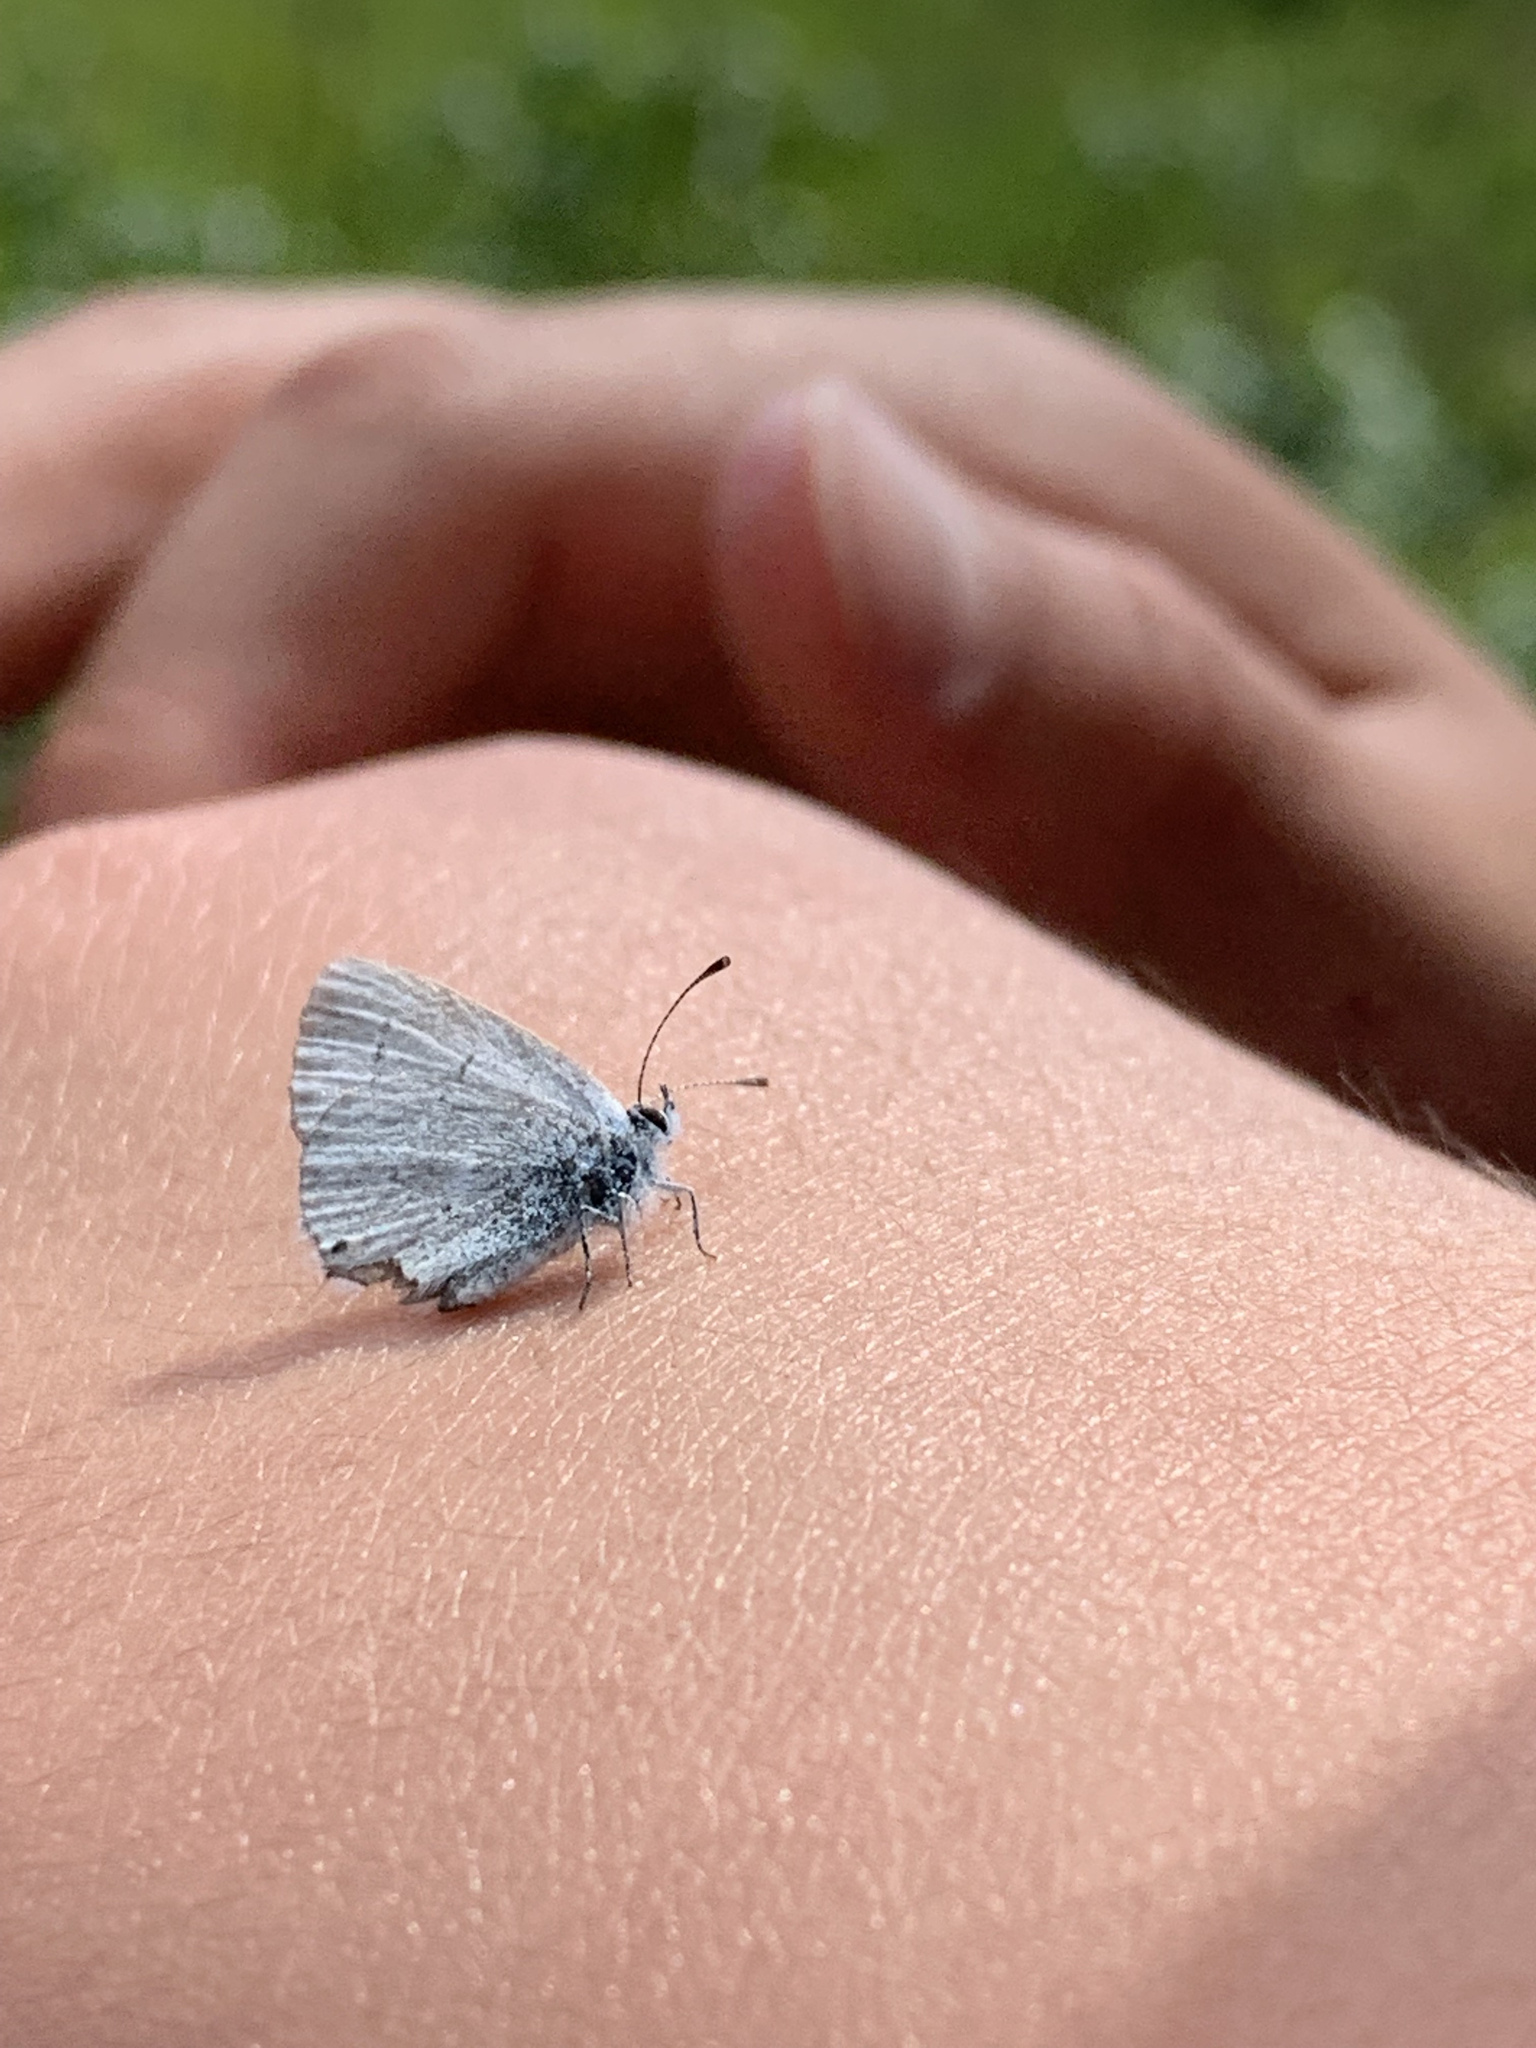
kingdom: Animalia
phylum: Arthropoda
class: Insecta
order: Lepidoptera
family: Lycaenidae
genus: Elkalyce
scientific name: Elkalyce amyntula
